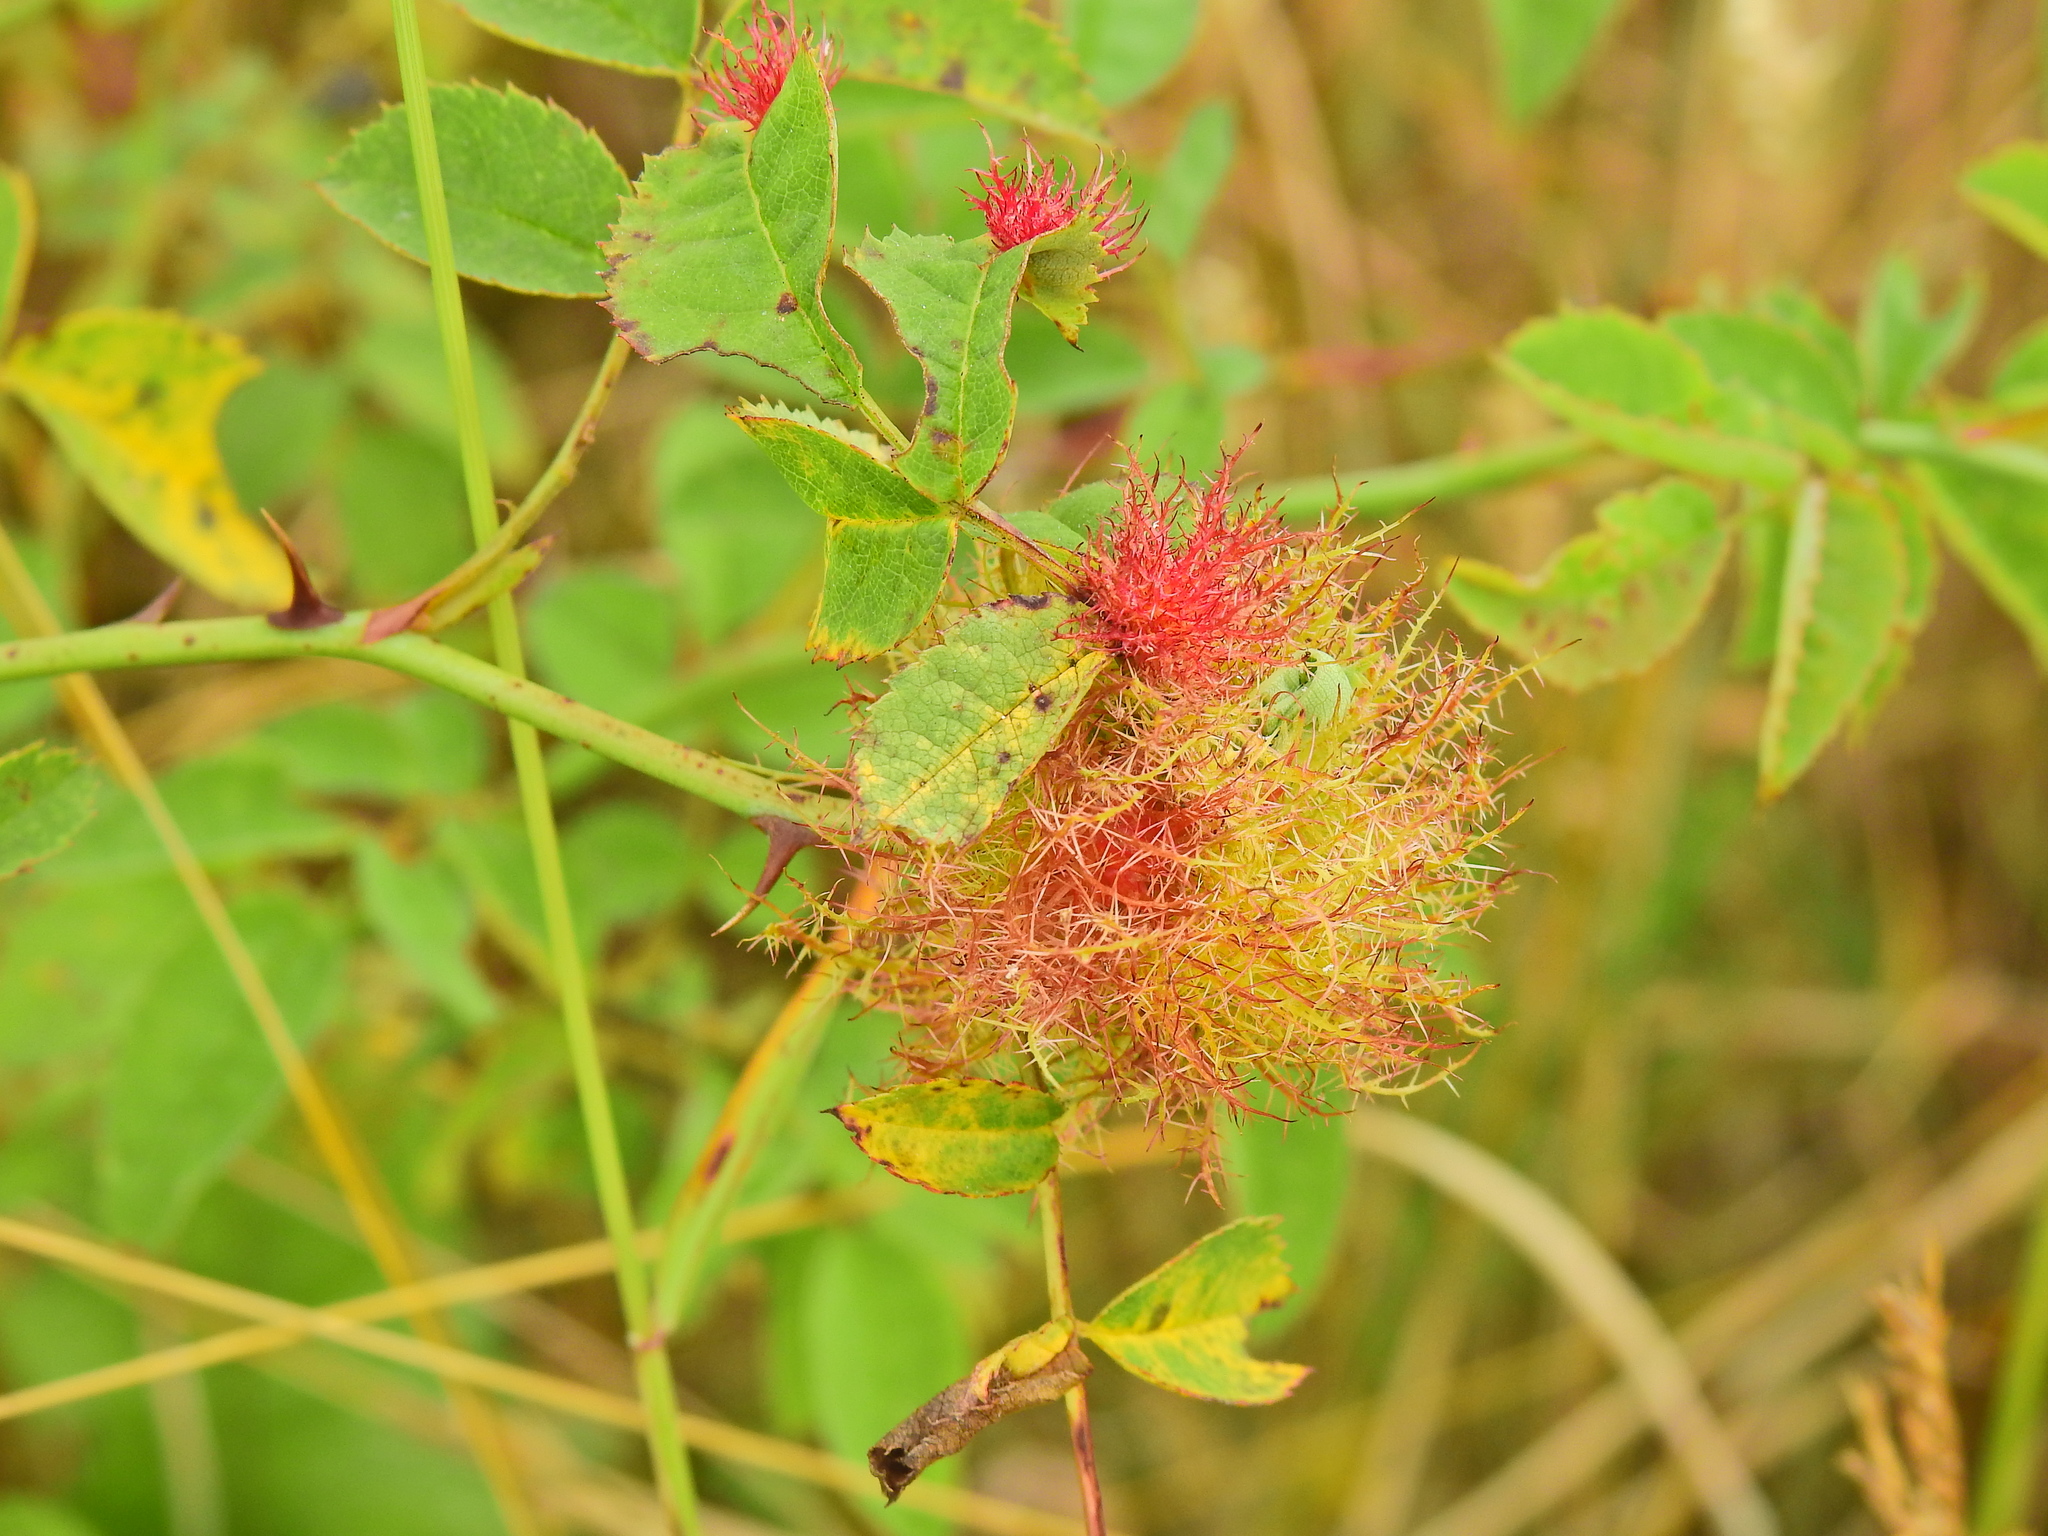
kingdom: Animalia
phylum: Arthropoda
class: Insecta
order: Hymenoptera
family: Cynipidae
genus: Diplolepis
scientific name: Diplolepis rosae
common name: Bedeguar gall
